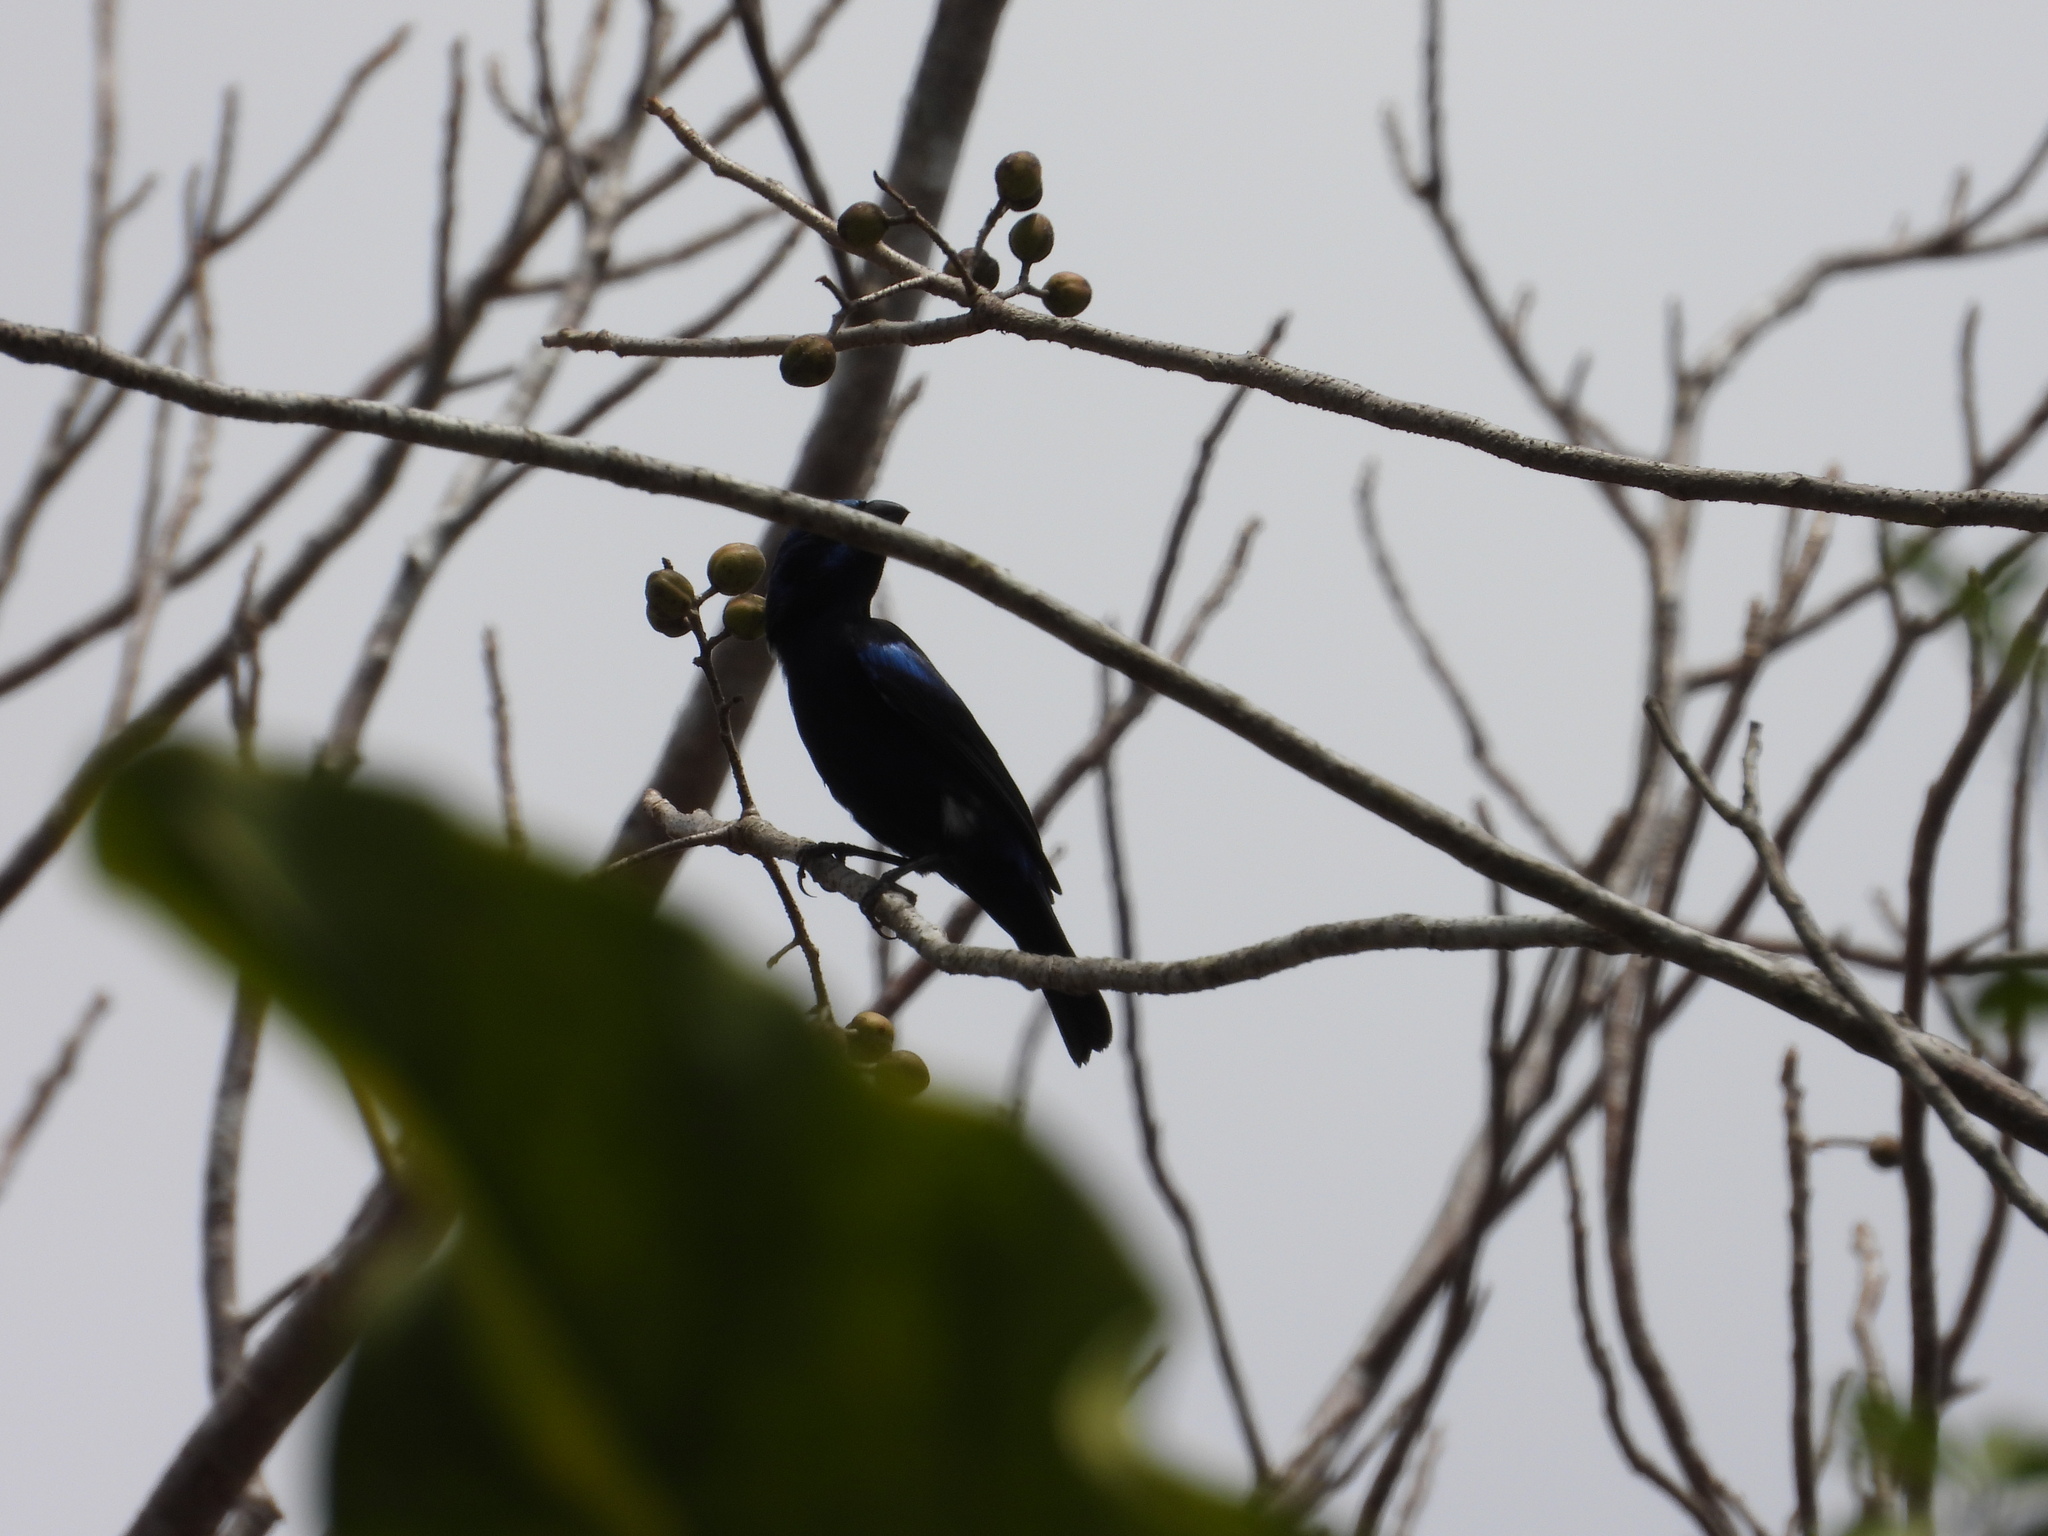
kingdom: Animalia
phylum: Chordata
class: Aves
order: Passeriformes
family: Cardinalidae
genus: Cyanocompsa
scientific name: Cyanocompsa parellina
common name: Blue bunting
